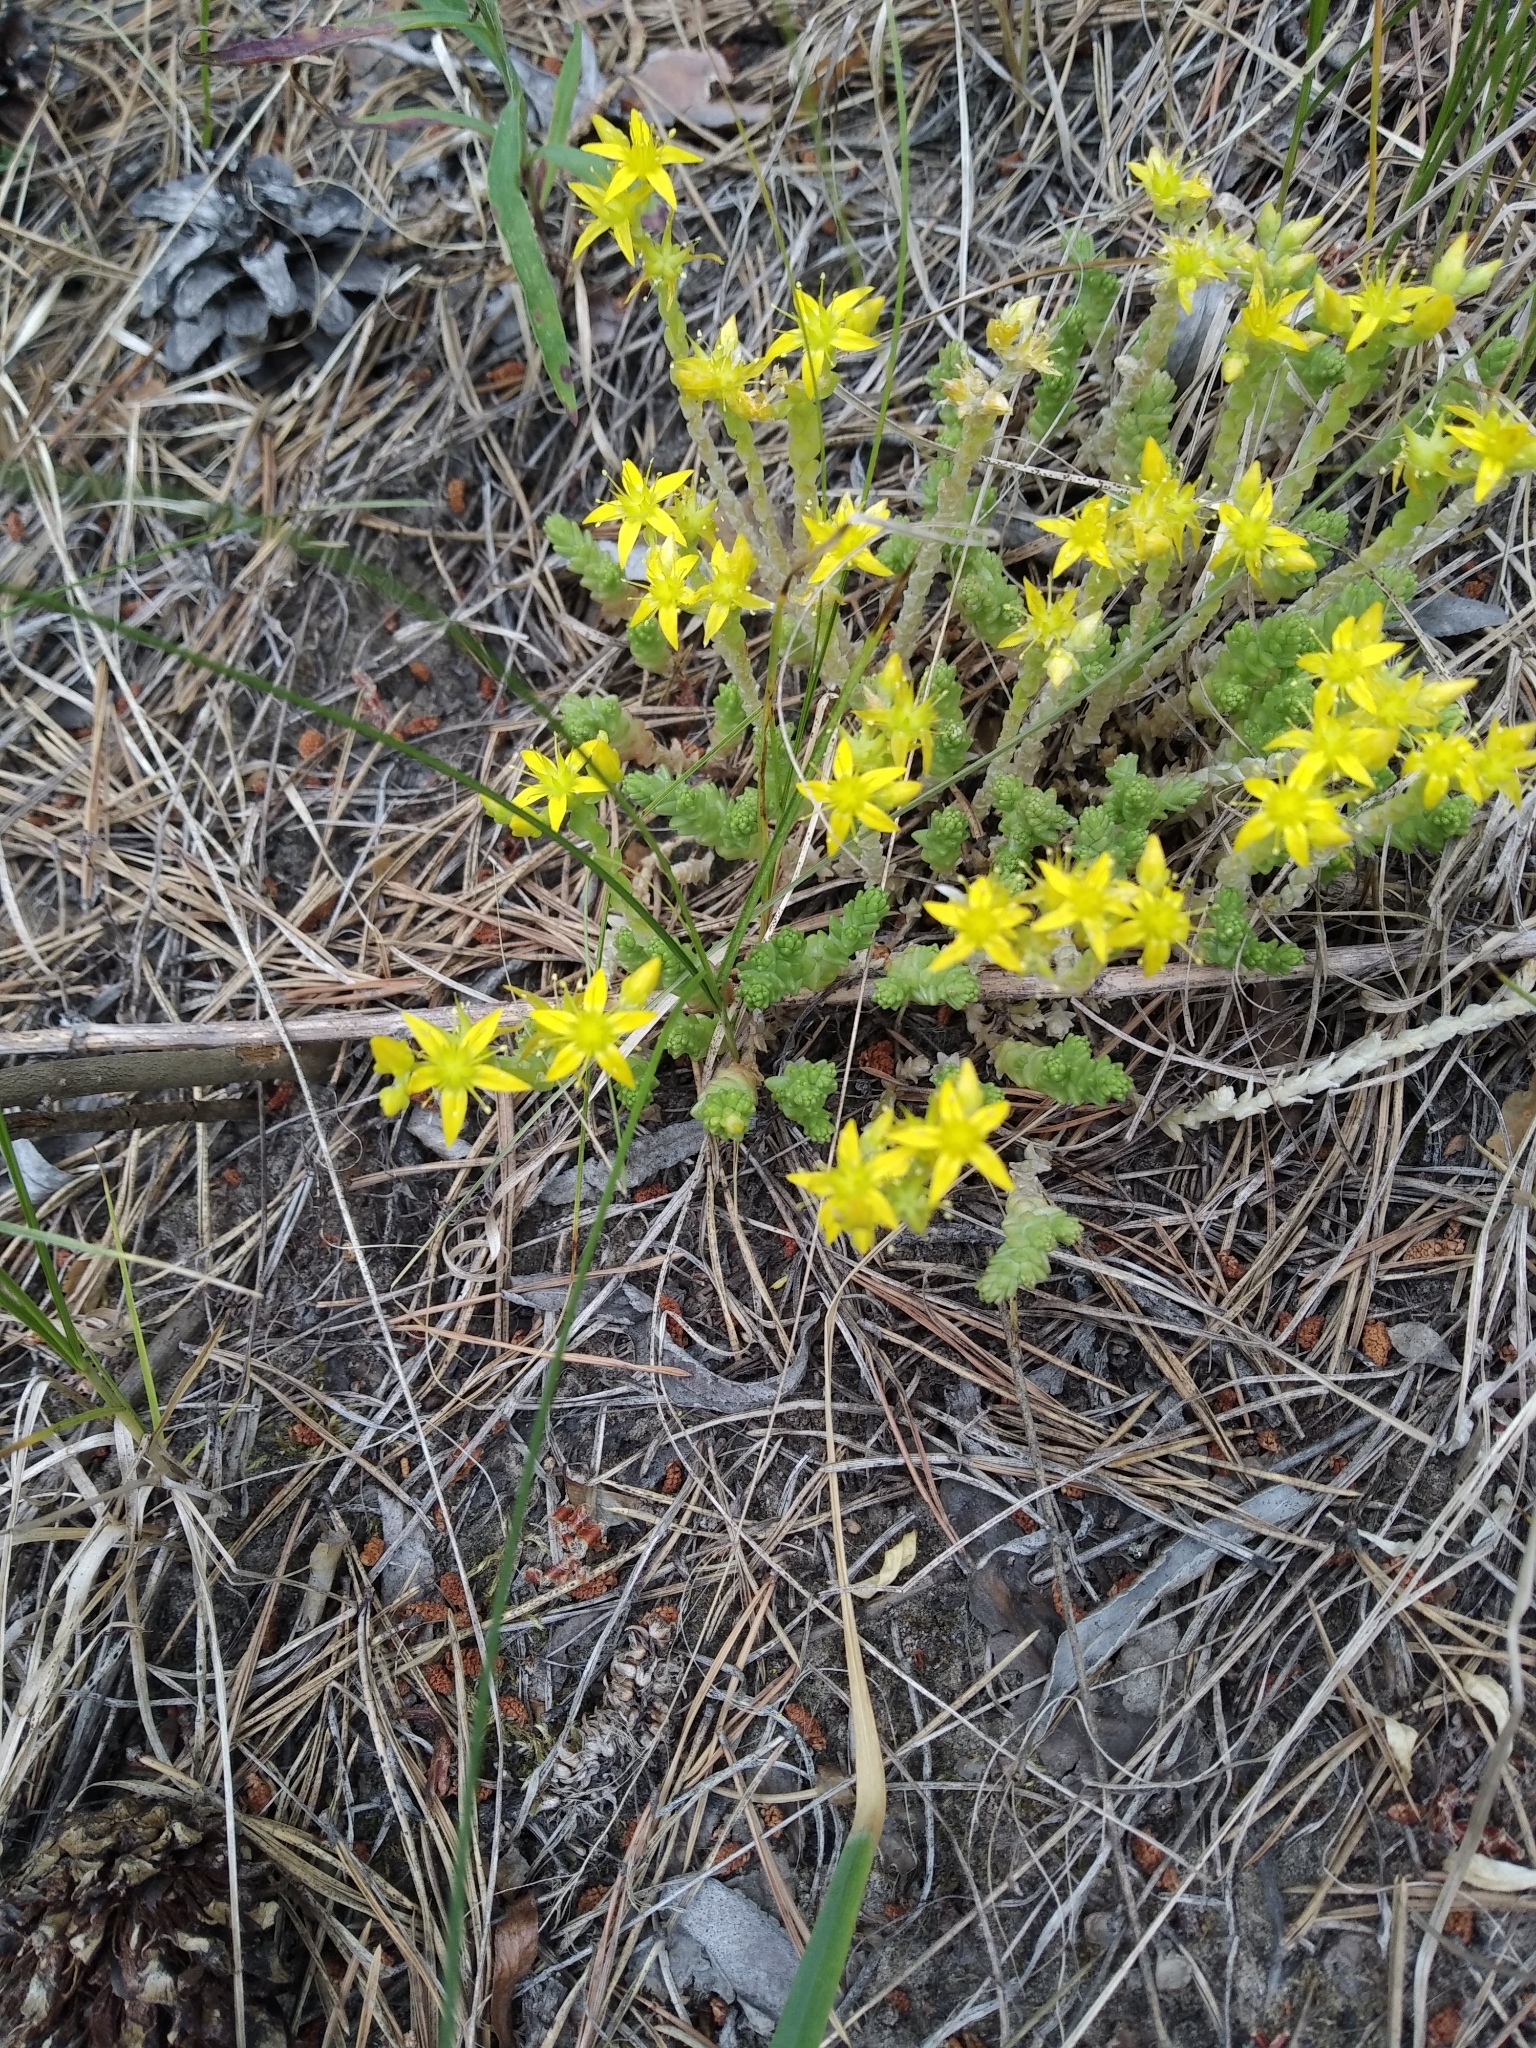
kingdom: Plantae
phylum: Tracheophyta
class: Magnoliopsida
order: Saxifragales
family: Crassulaceae
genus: Sedum
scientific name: Sedum acre
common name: Biting stonecrop
